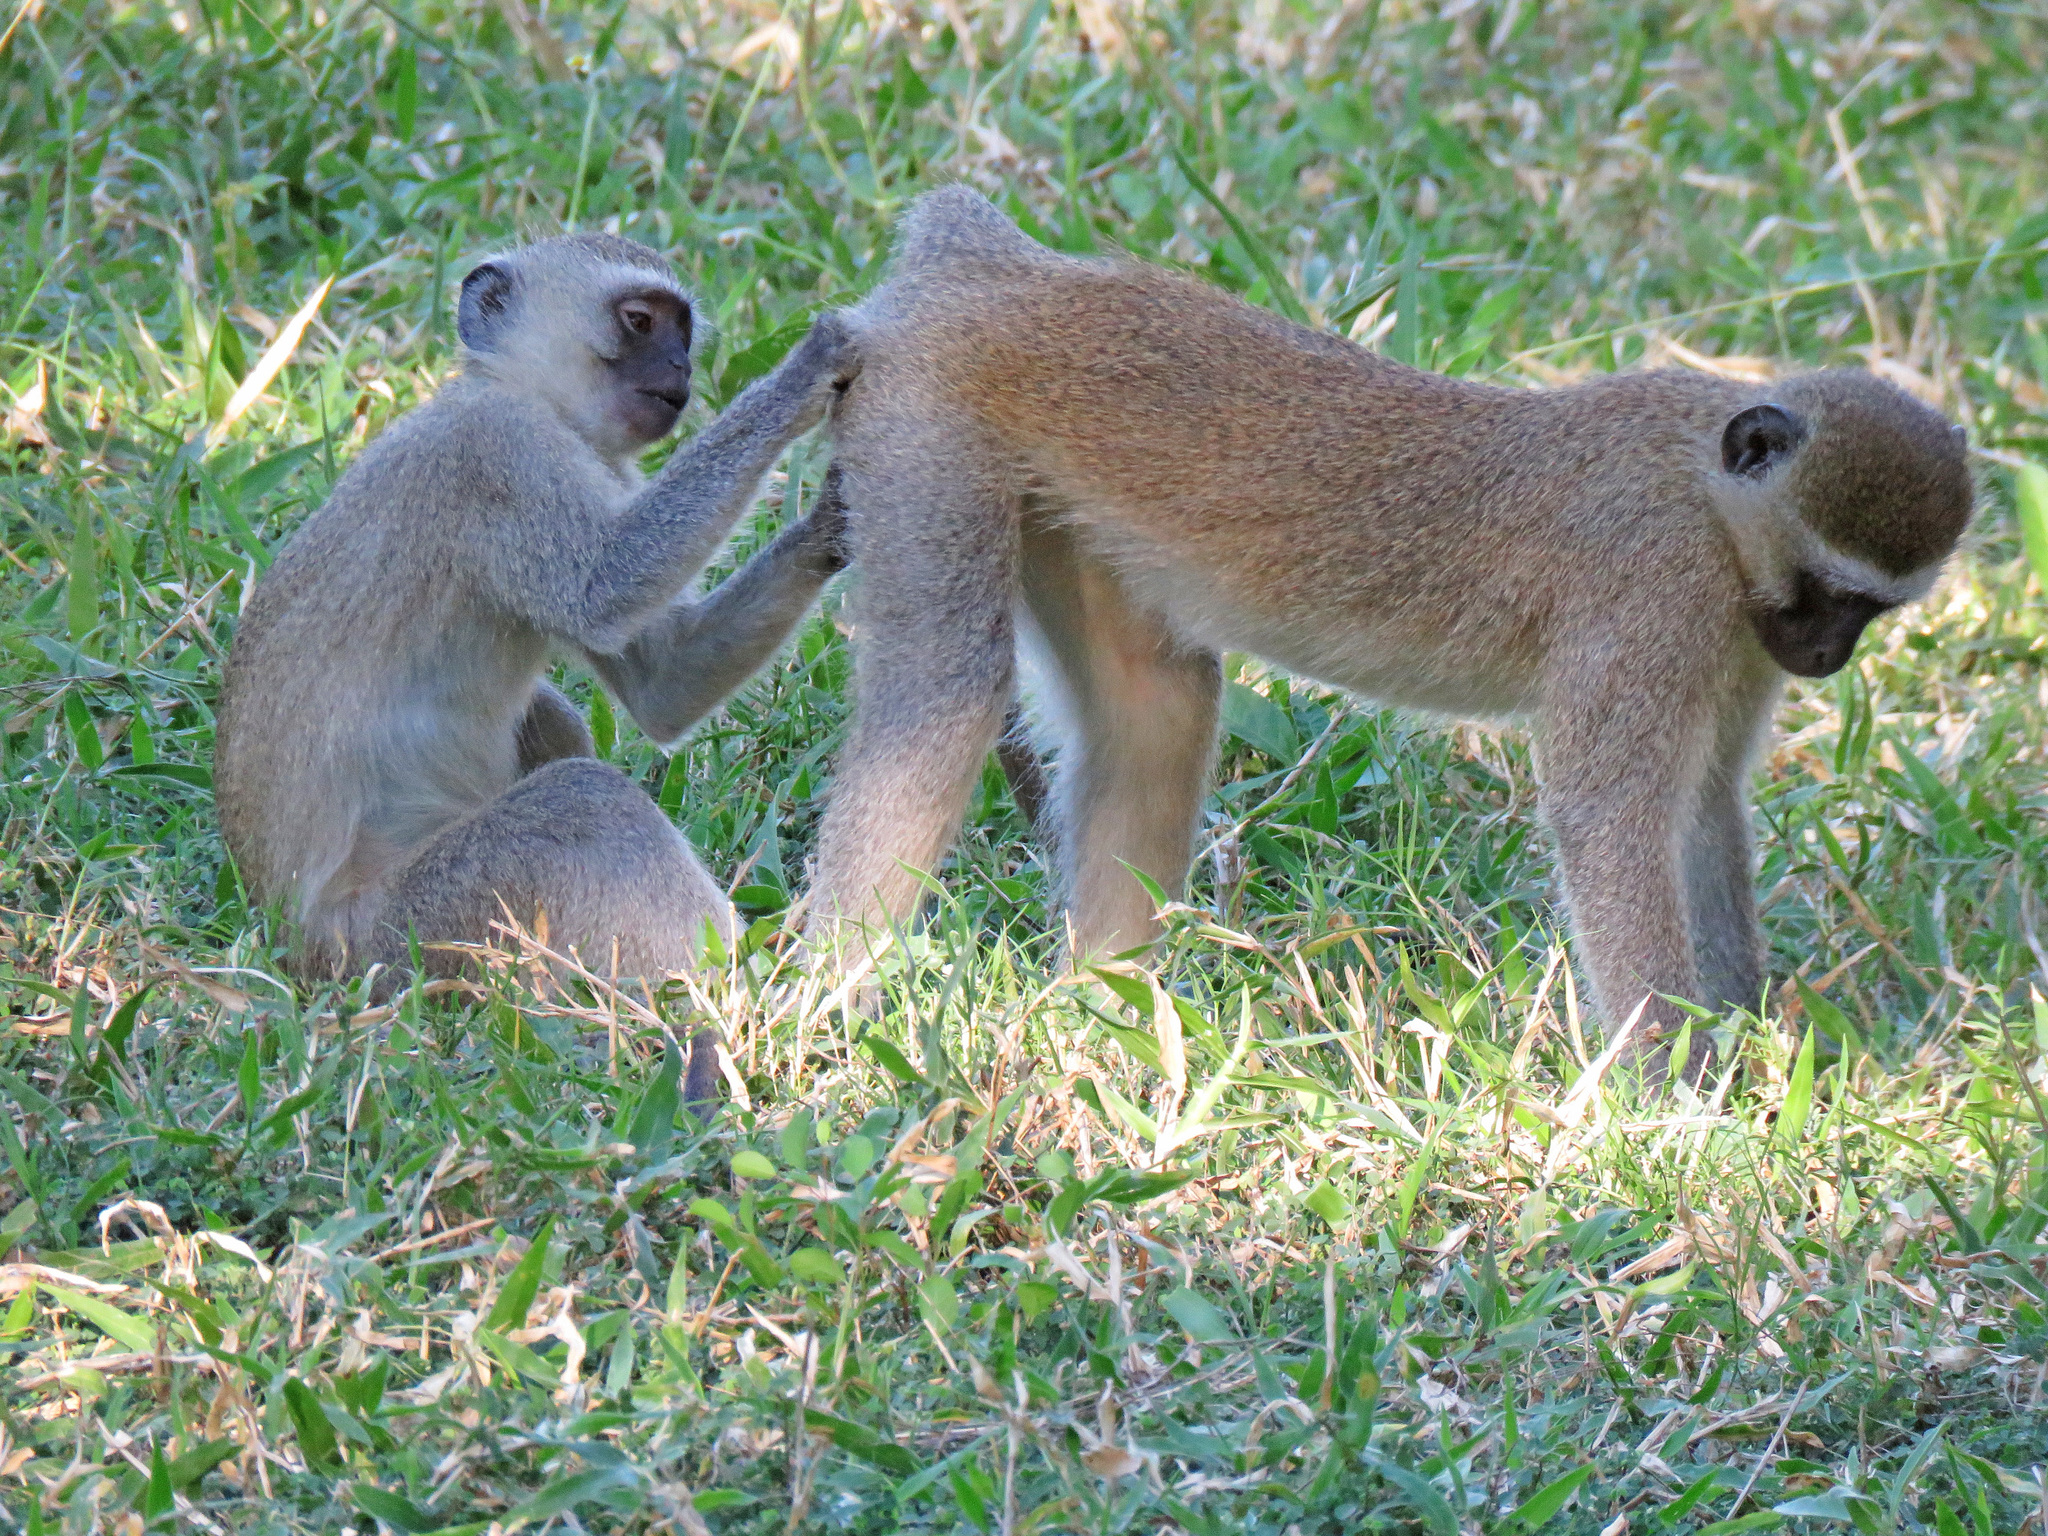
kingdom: Animalia
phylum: Chordata
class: Mammalia
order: Primates
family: Cercopithecidae
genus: Chlorocebus
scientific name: Chlorocebus pygerythrus
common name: Vervet monkey
